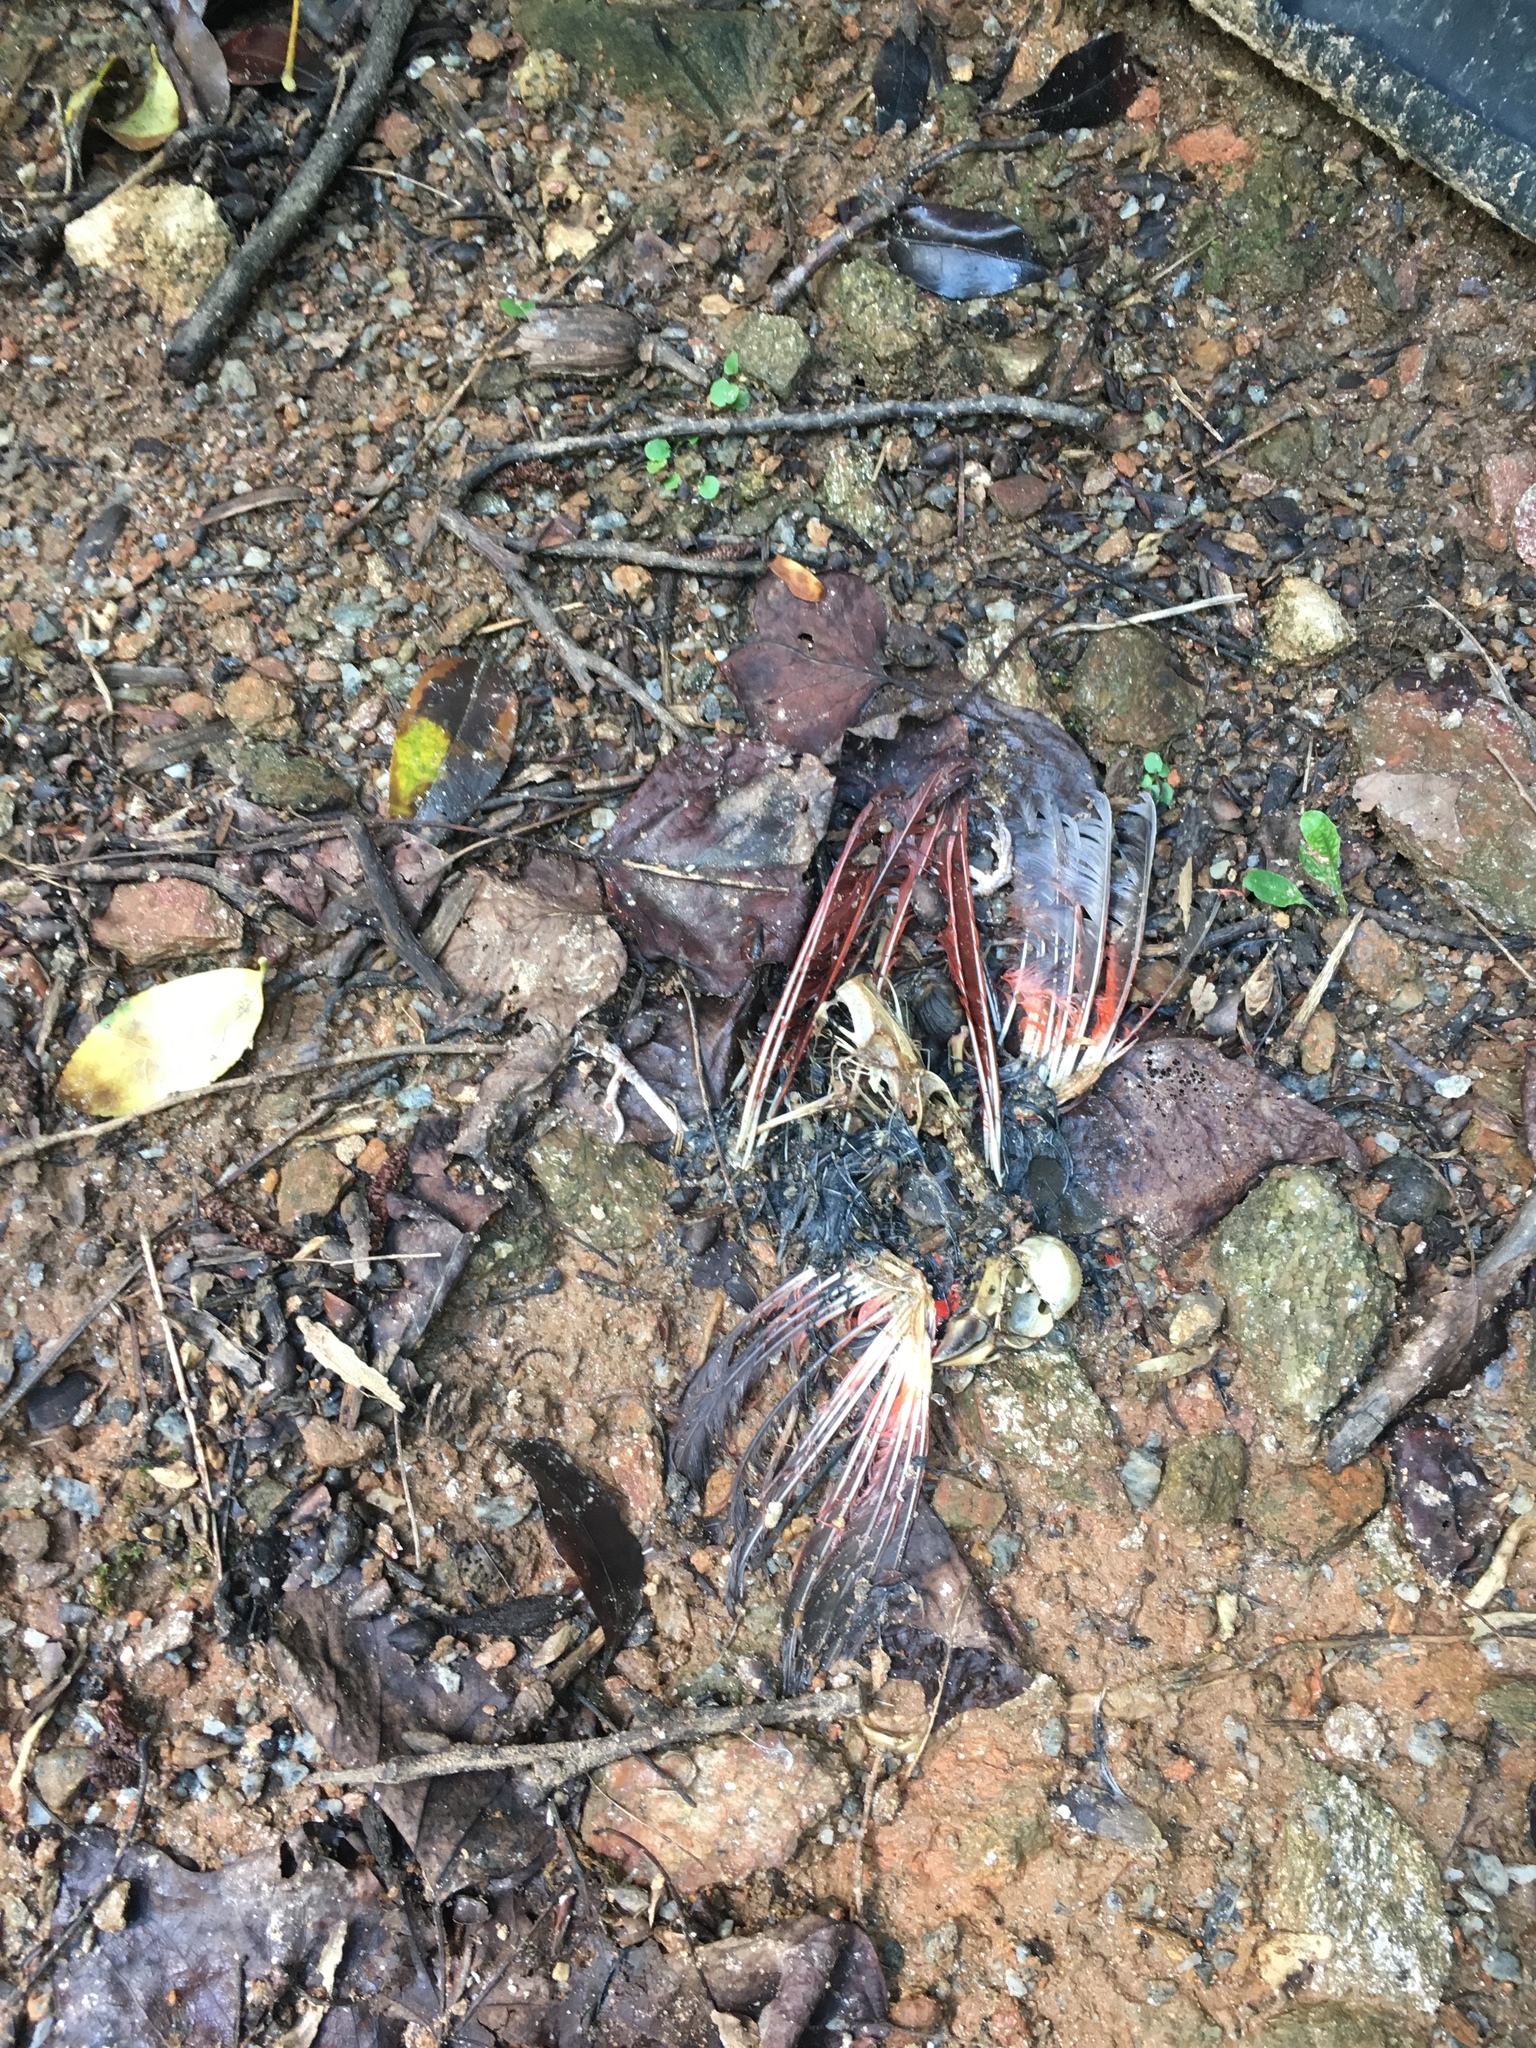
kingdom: Animalia
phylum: Chordata
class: Aves
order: Passeriformes
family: Cardinalidae
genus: Cardinalis
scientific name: Cardinalis cardinalis
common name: Northern cardinal
